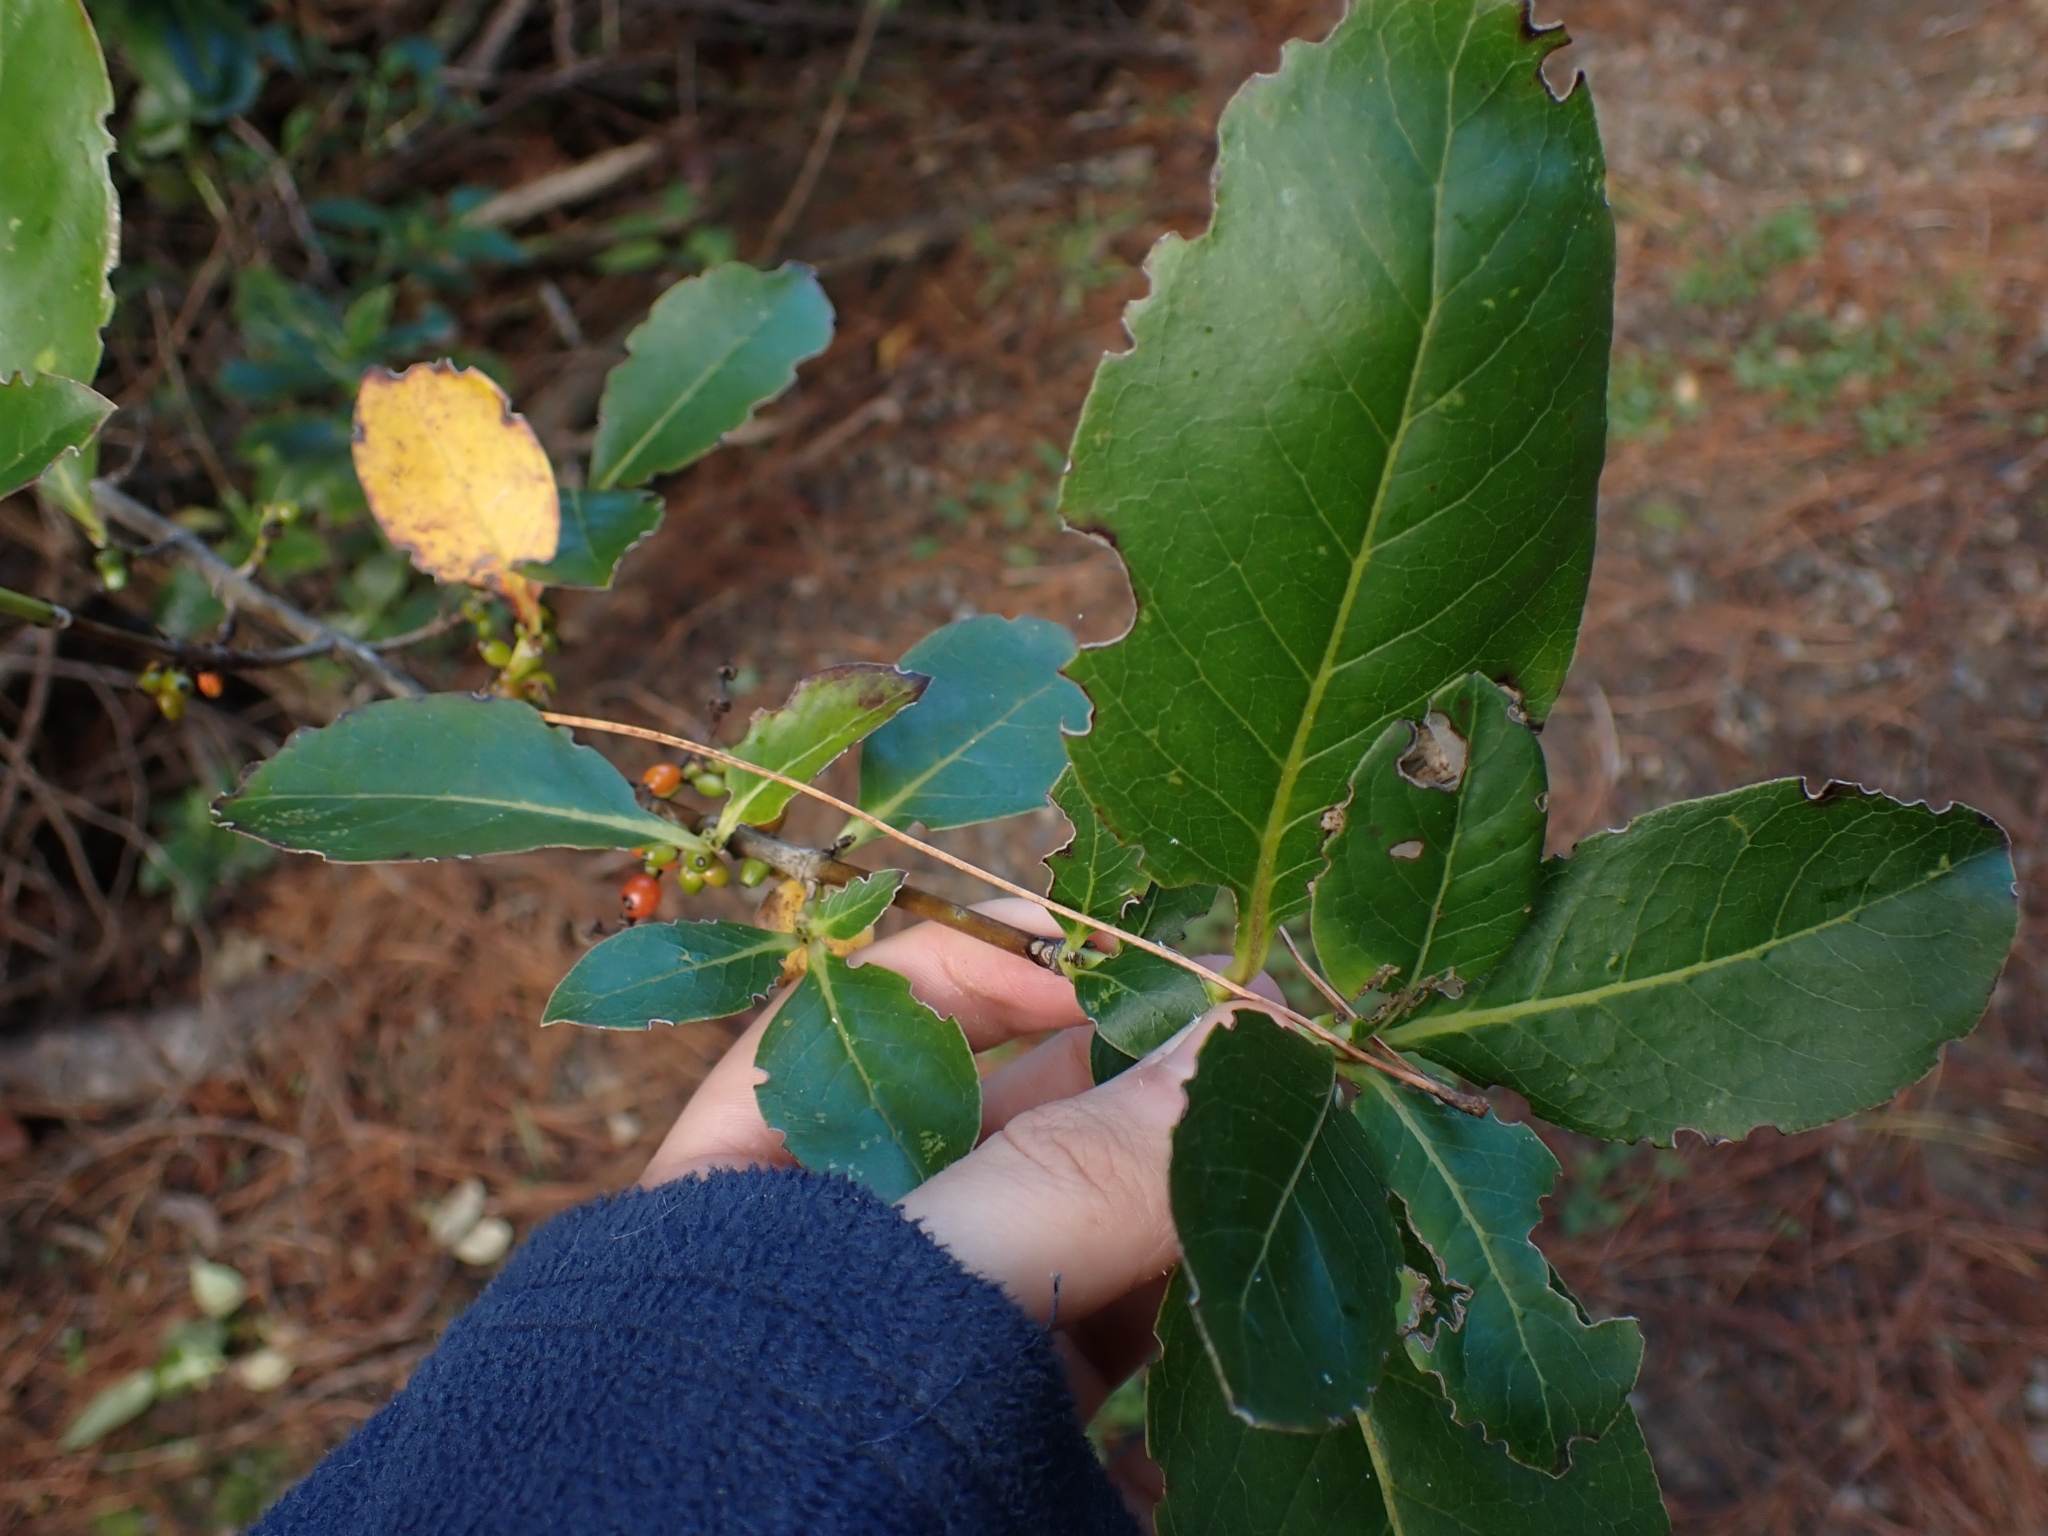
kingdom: Plantae
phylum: Tracheophyta
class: Magnoliopsida
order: Gentianales
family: Rubiaceae
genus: Coprosma
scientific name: Coprosma robusta
